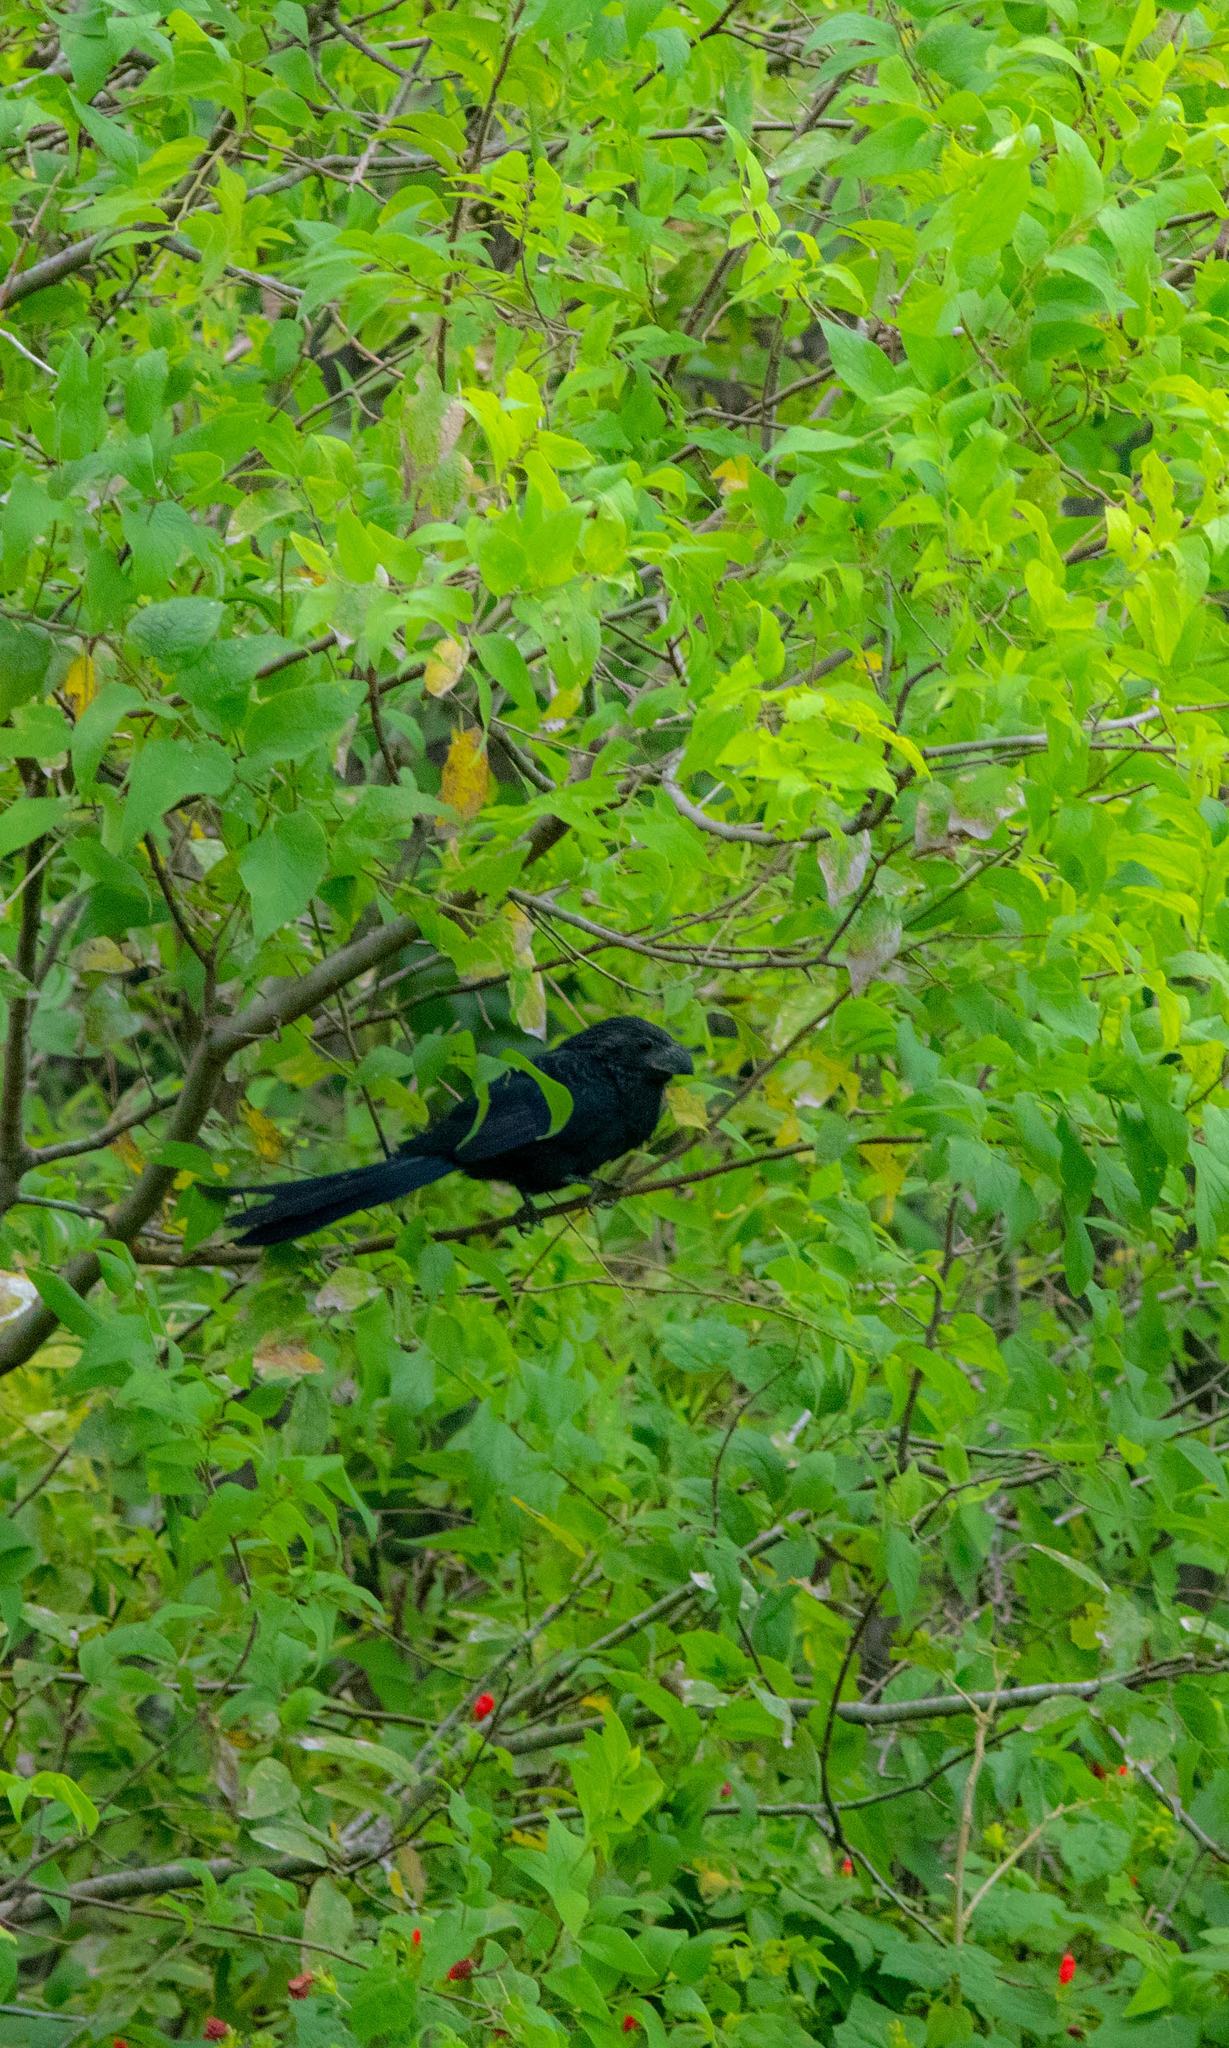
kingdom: Animalia
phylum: Chordata
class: Aves
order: Cuculiformes
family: Cuculidae
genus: Crotophaga
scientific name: Crotophaga sulcirostris
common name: Groove-billed ani
